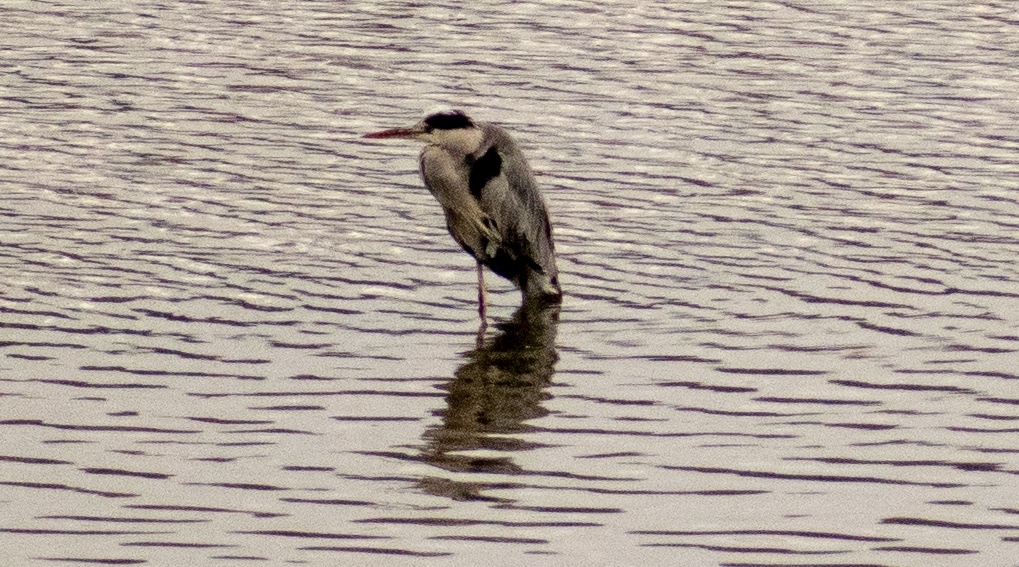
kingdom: Animalia
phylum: Chordata
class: Aves
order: Pelecaniformes
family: Ardeidae
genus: Ardea
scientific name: Ardea cinerea
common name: Grey heron
